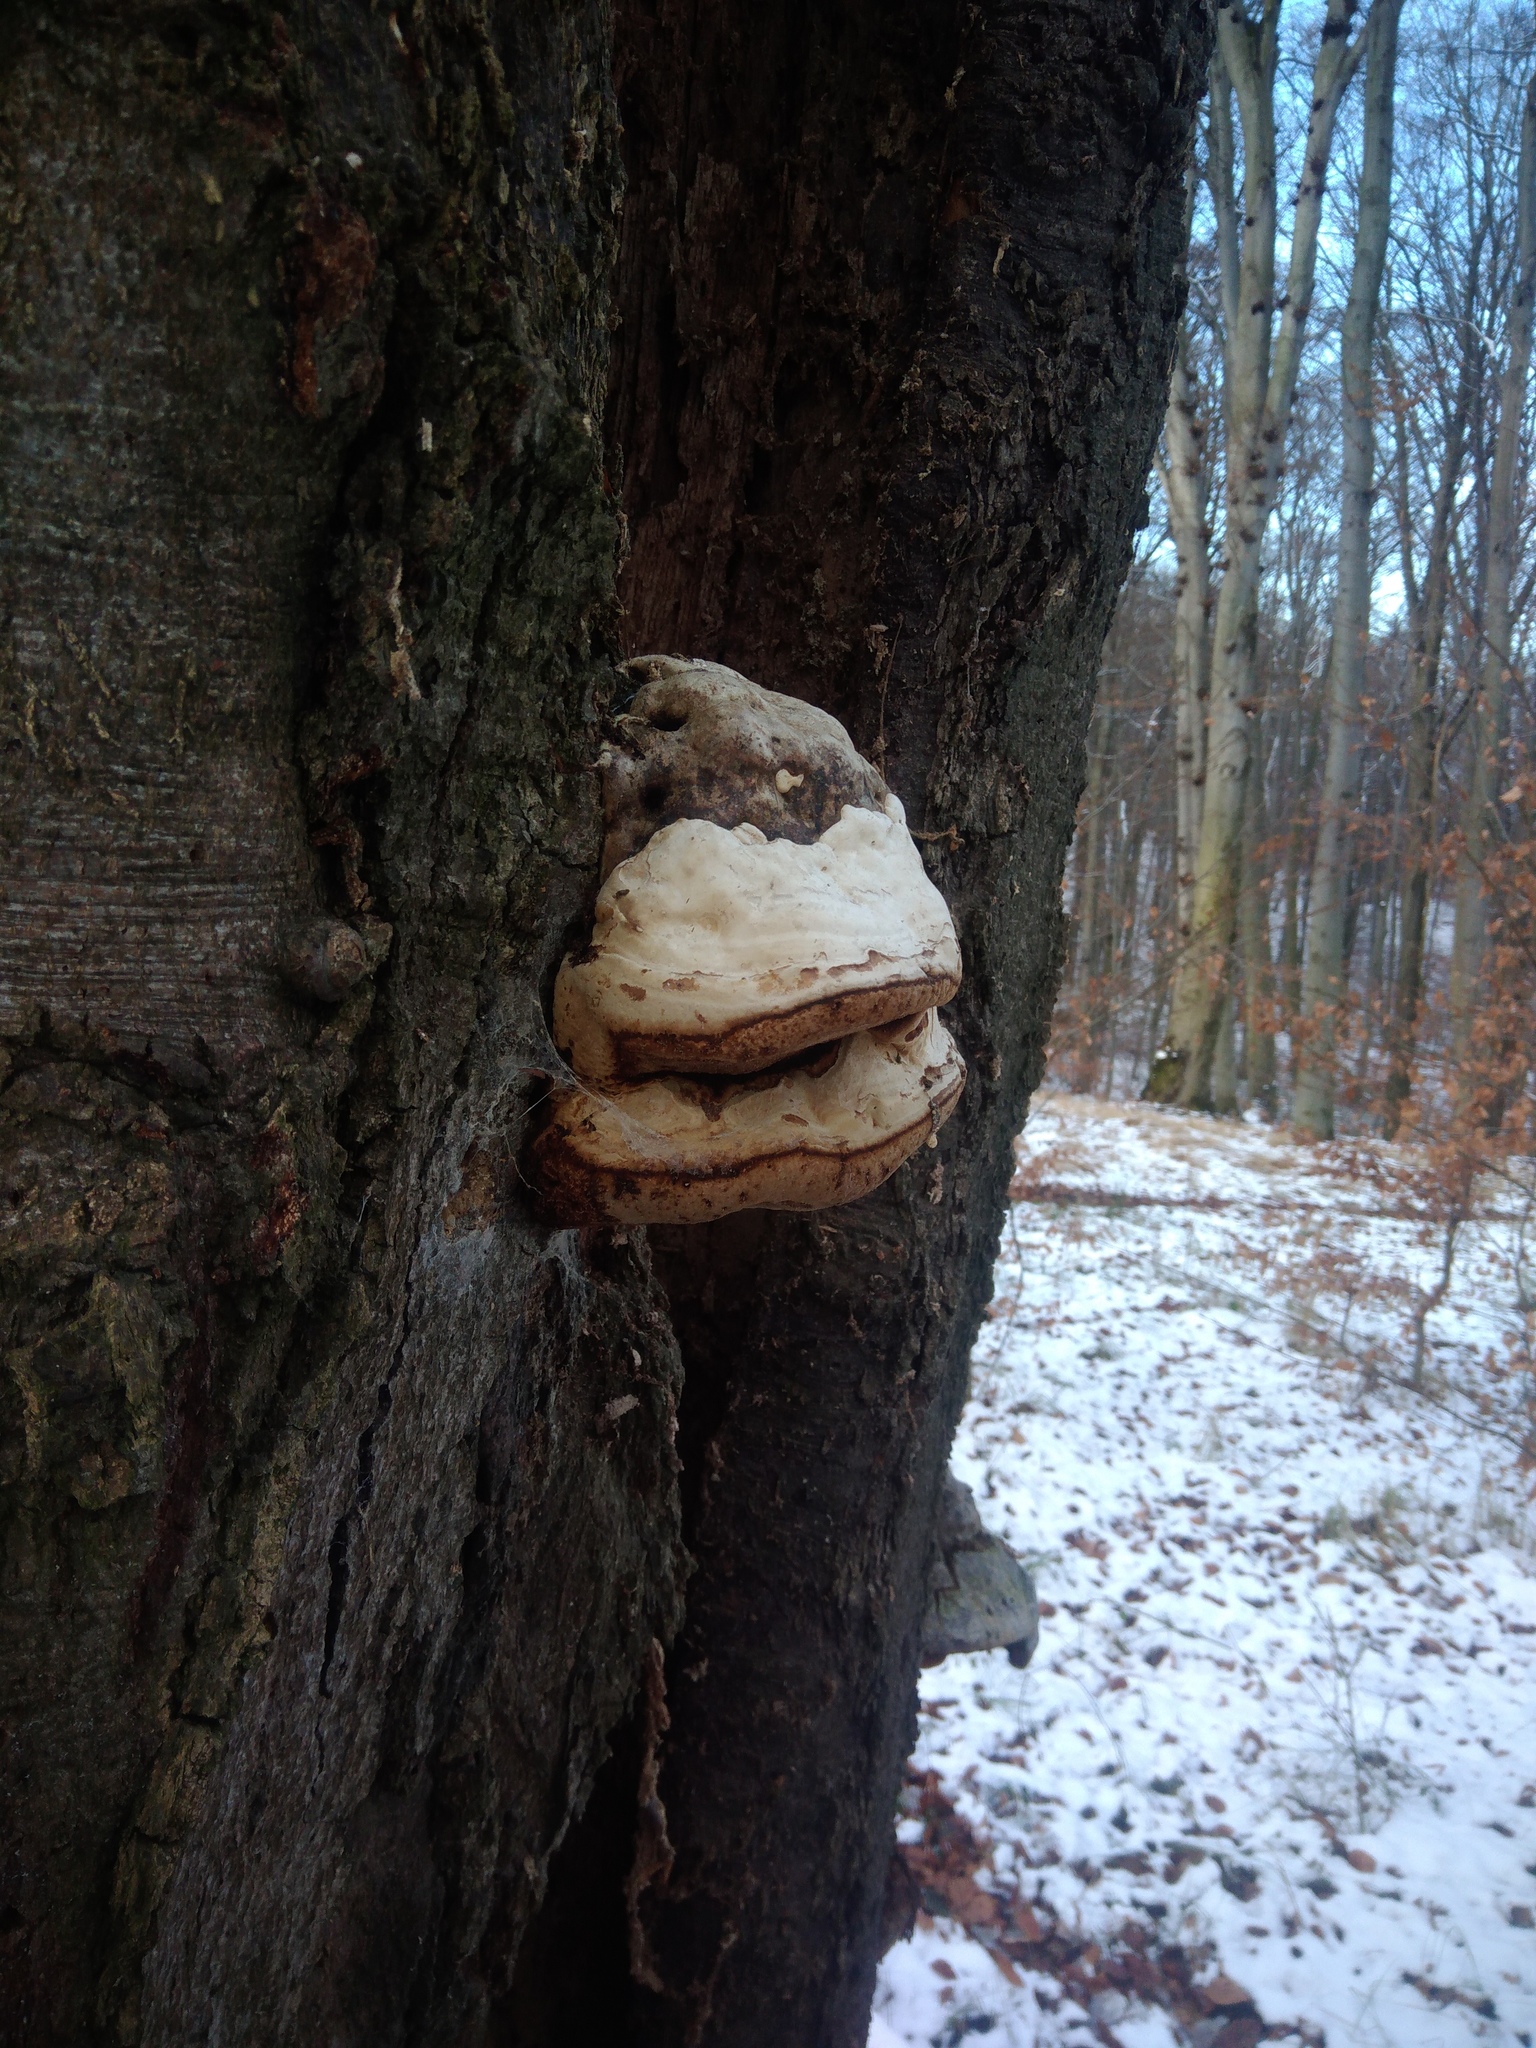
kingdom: Fungi
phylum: Basidiomycota
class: Agaricomycetes
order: Polyporales
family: Polyporaceae
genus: Fomes
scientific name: Fomes fomentarius
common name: Hoof fungus
